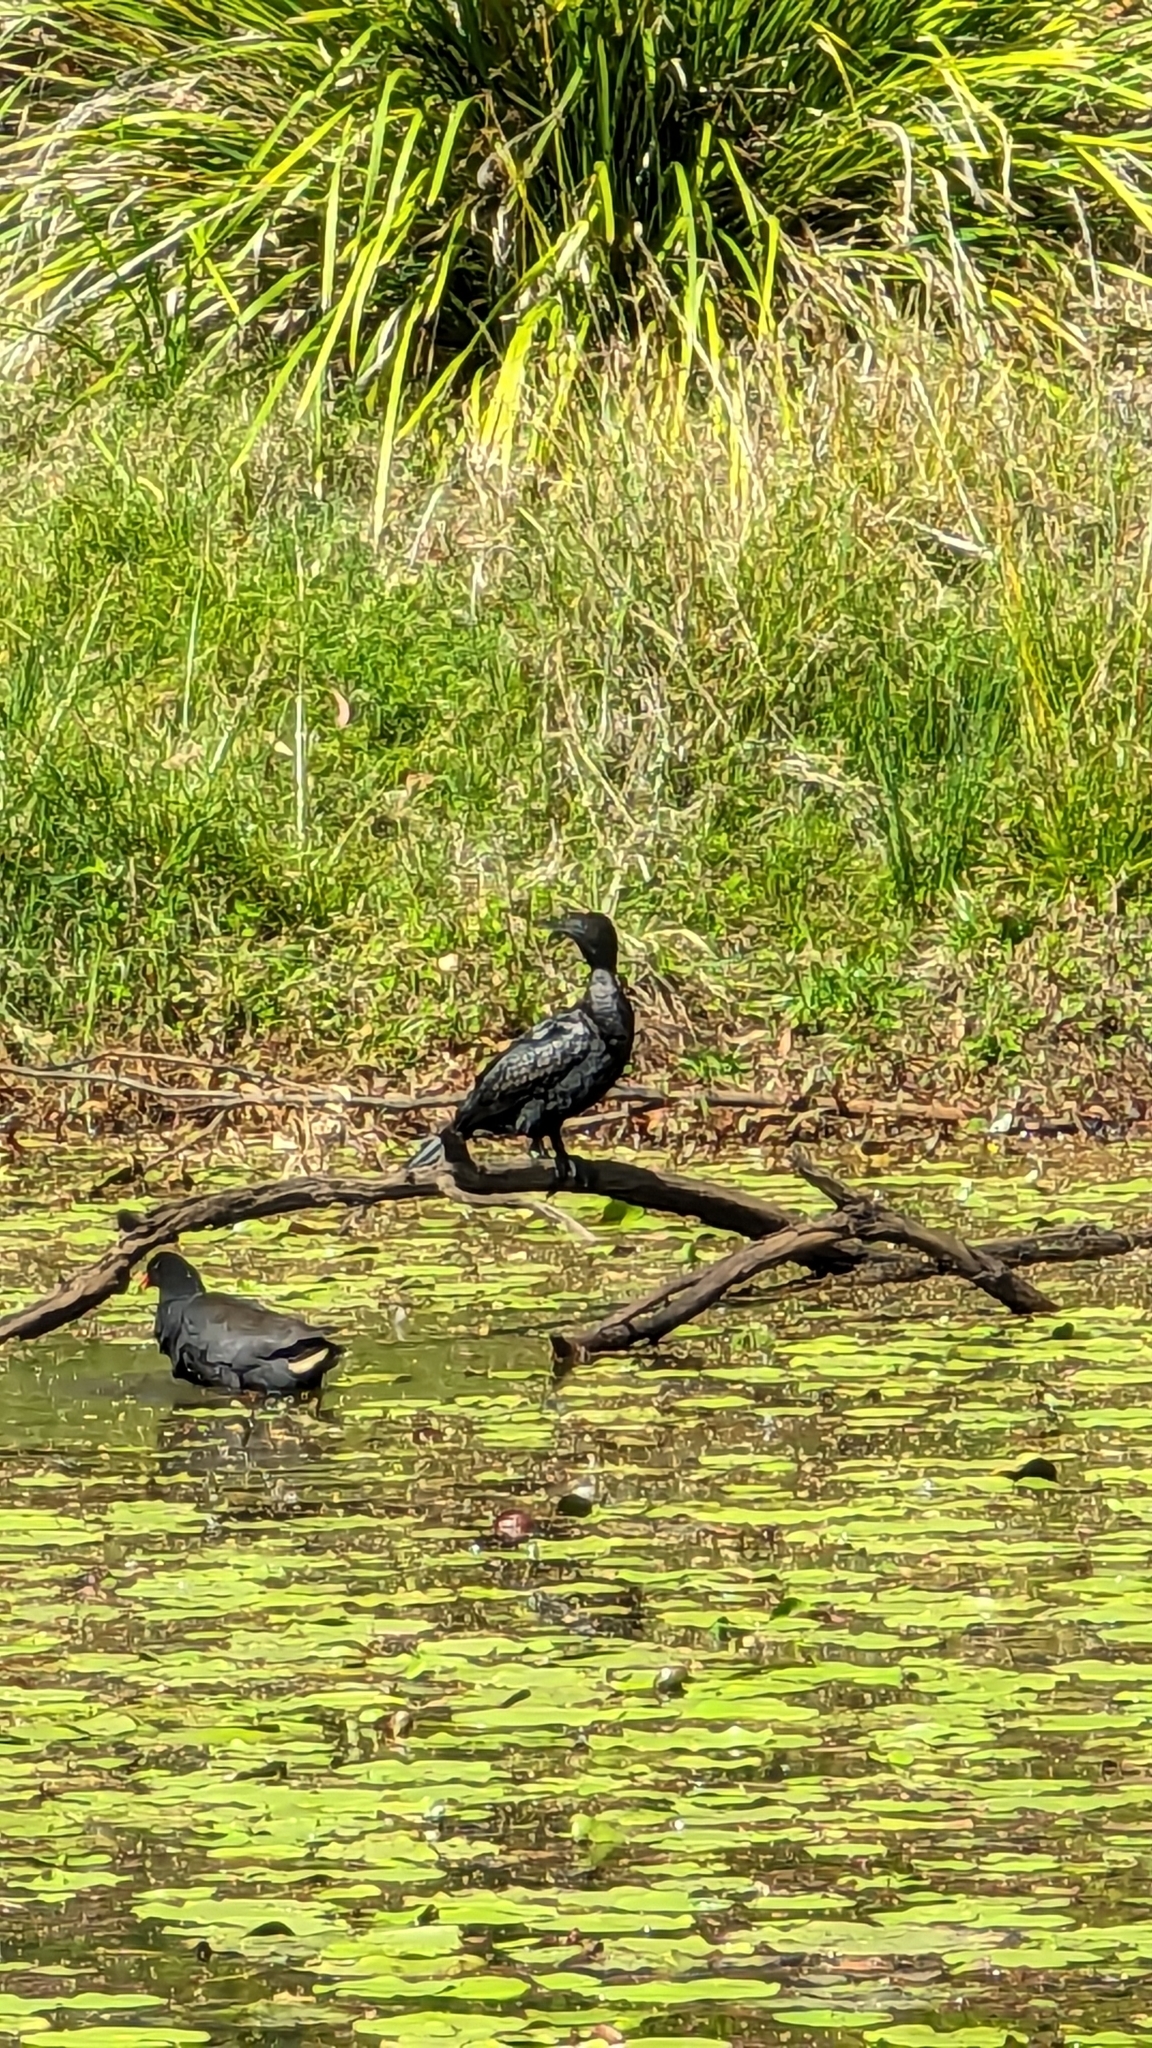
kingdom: Animalia
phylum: Chordata
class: Aves
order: Suliformes
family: Phalacrocoracidae
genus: Phalacrocorax
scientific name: Phalacrocorax sulcirostris
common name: Little black cormorant
